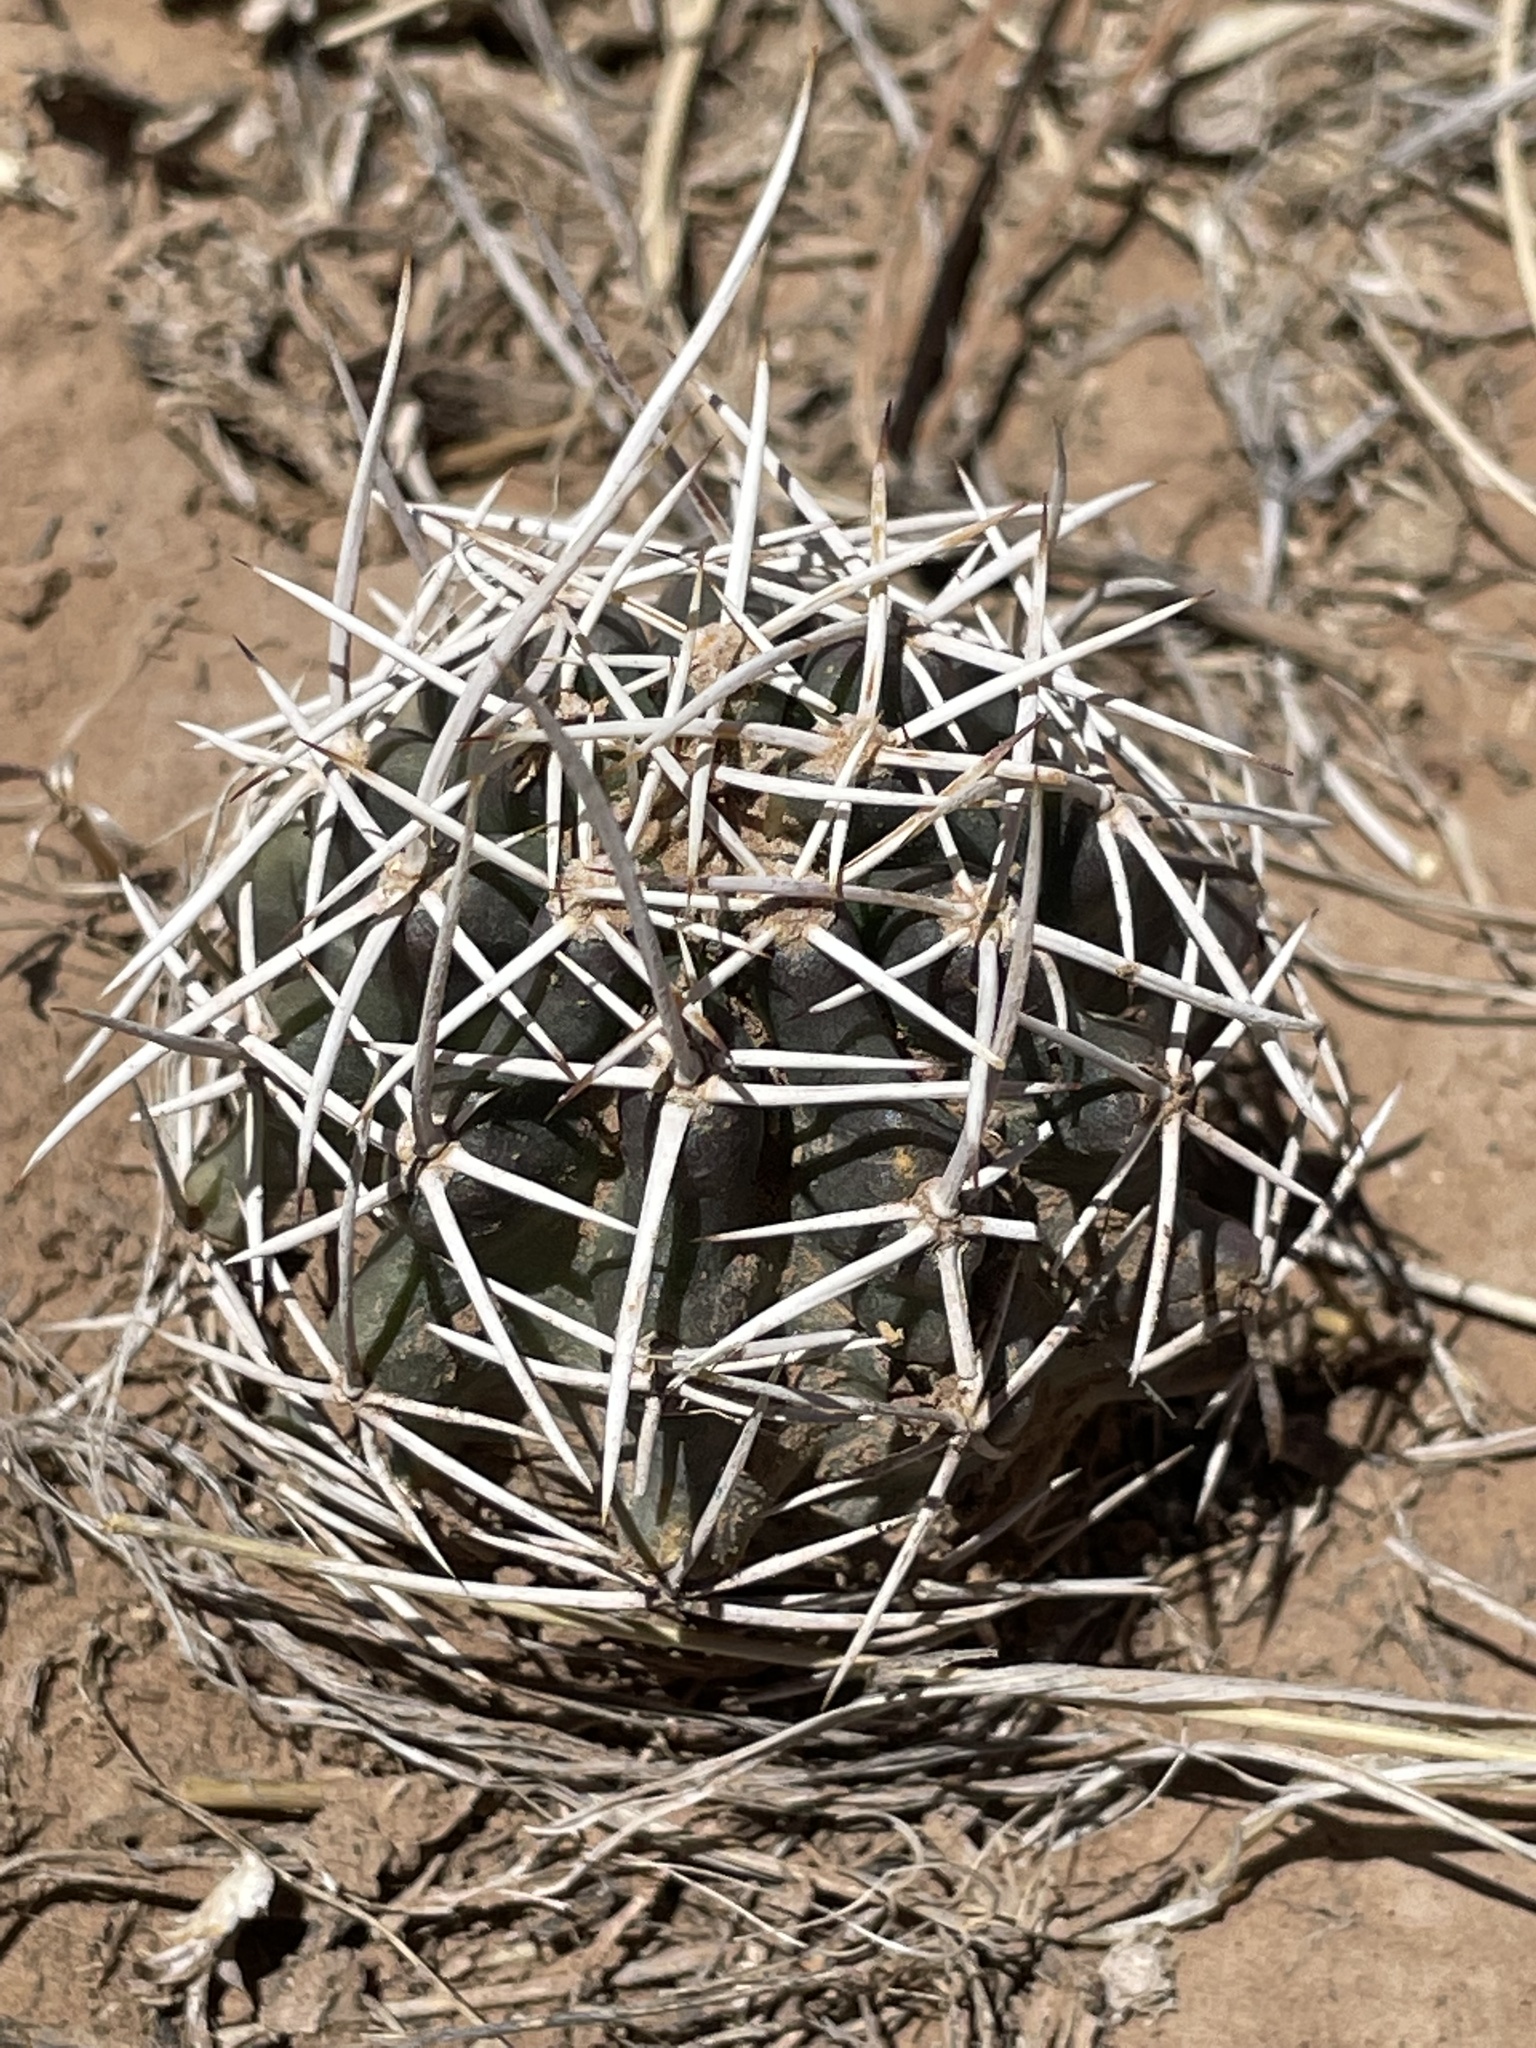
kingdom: Plantae
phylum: Tracheophyta
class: Magnoliopsida
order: Caryophyllales
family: Cactaceae
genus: Echinocereus
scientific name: Echinocereus fendleri
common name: Fendler's hedgehog cactus
